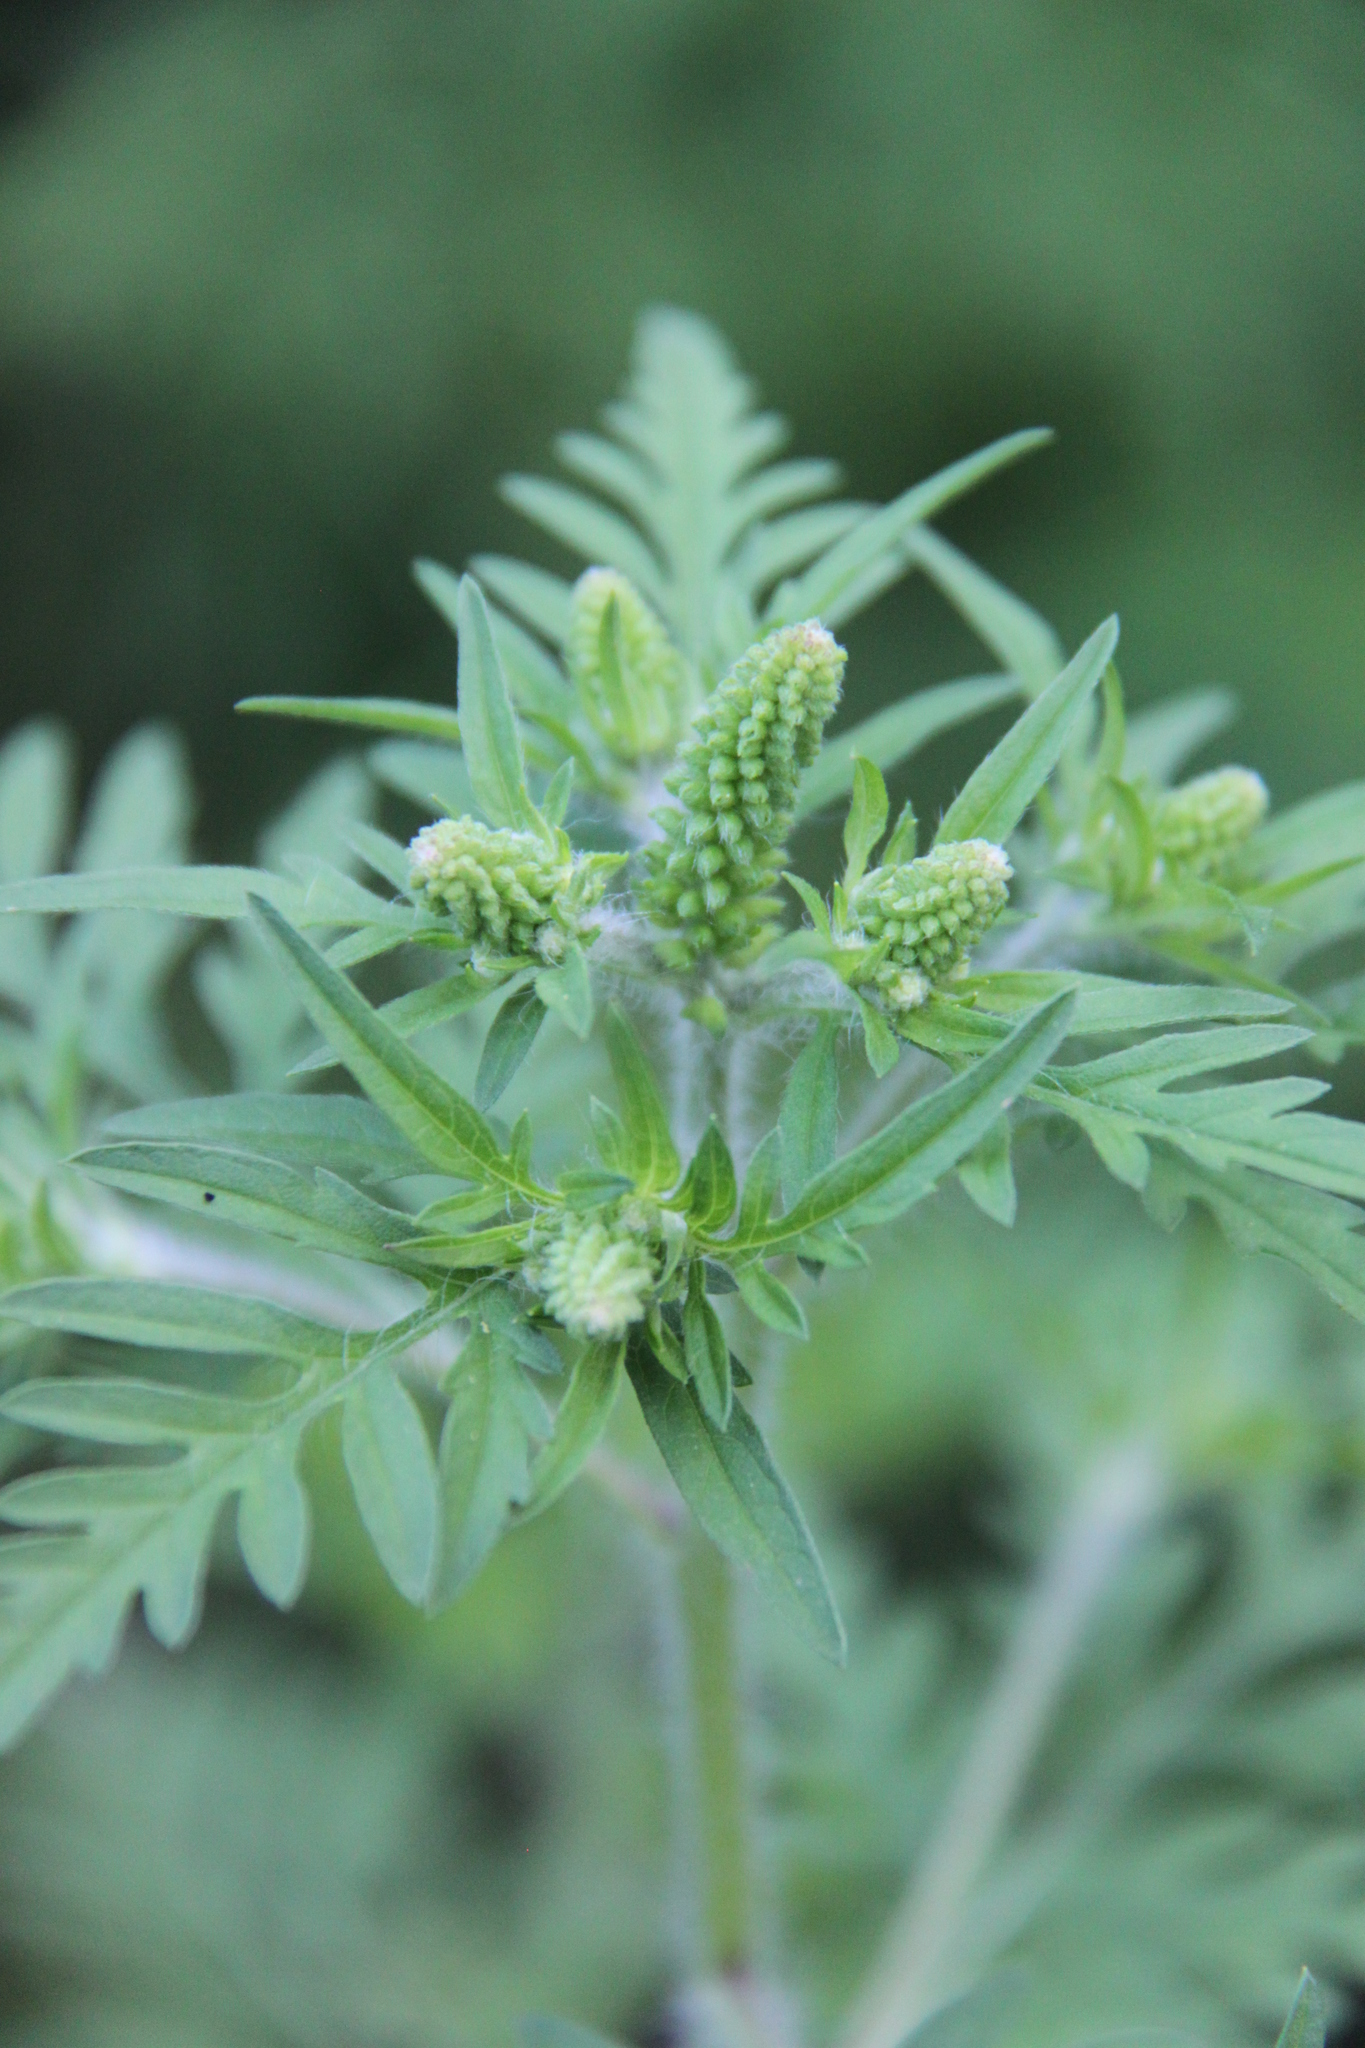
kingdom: Plantae
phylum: Tracheophyta
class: Magnoliopsida
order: Asterales
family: Asteraceae
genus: Ambrosia
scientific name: Ambrosia artemisiifolia
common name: Annual ragweed
